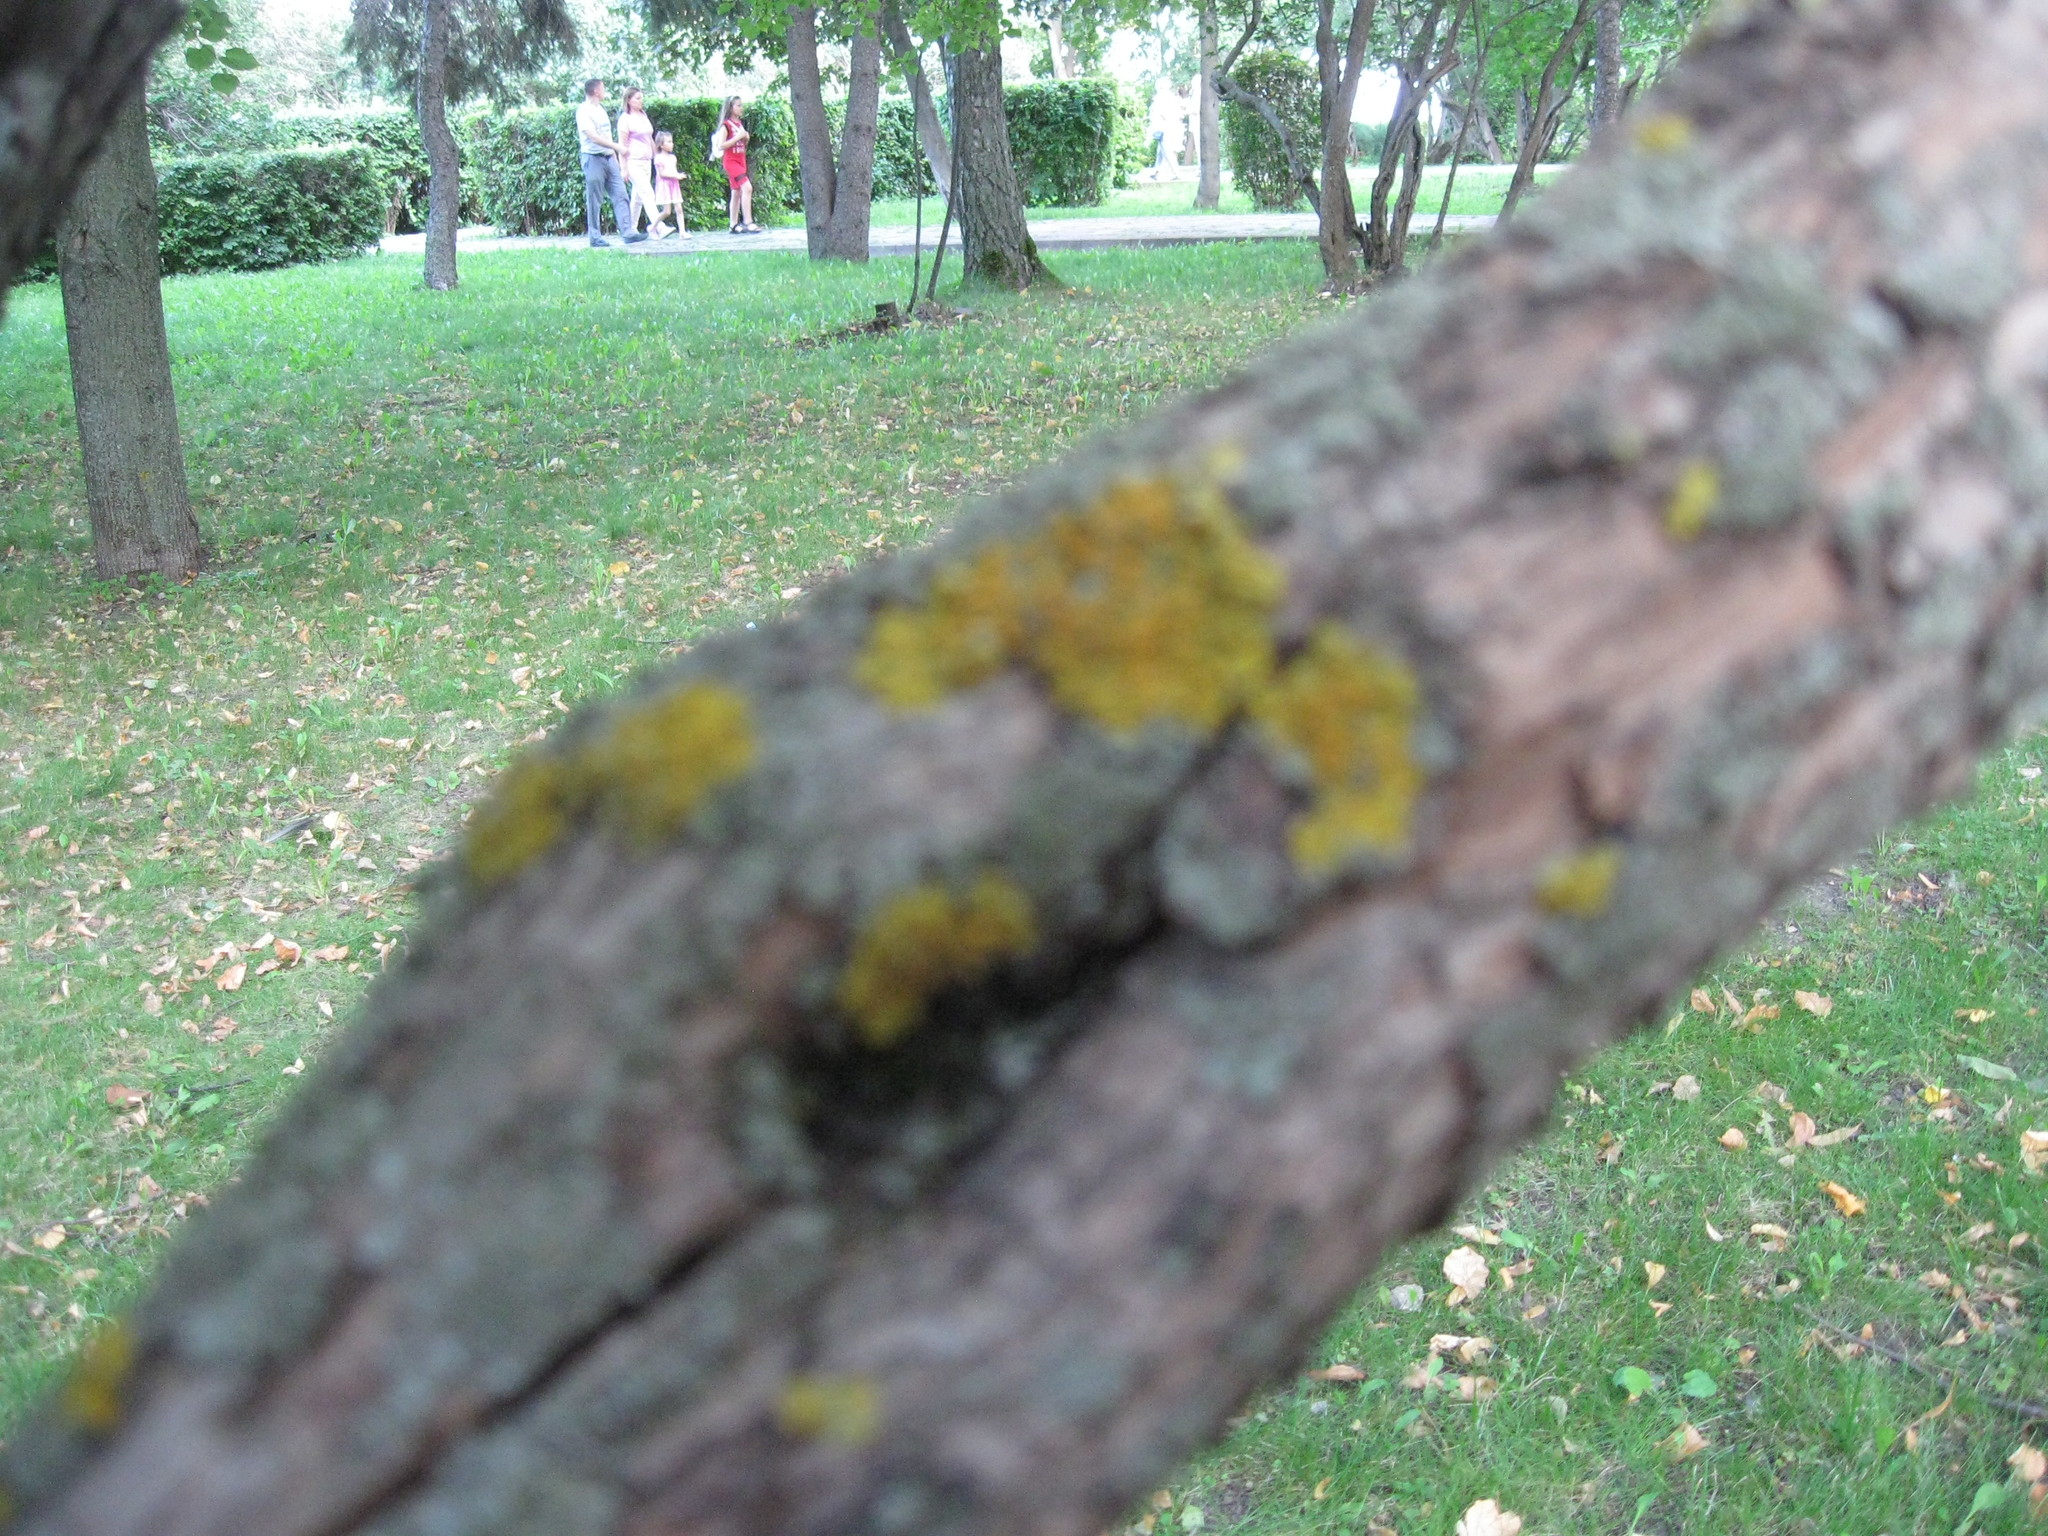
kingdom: Fungi
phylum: Ascomycota
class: Lecanoromycetes
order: Teloschistales
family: Teloschistaceae
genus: Xanthoria
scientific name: Xanthoria parietina
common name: Common orange lichen
